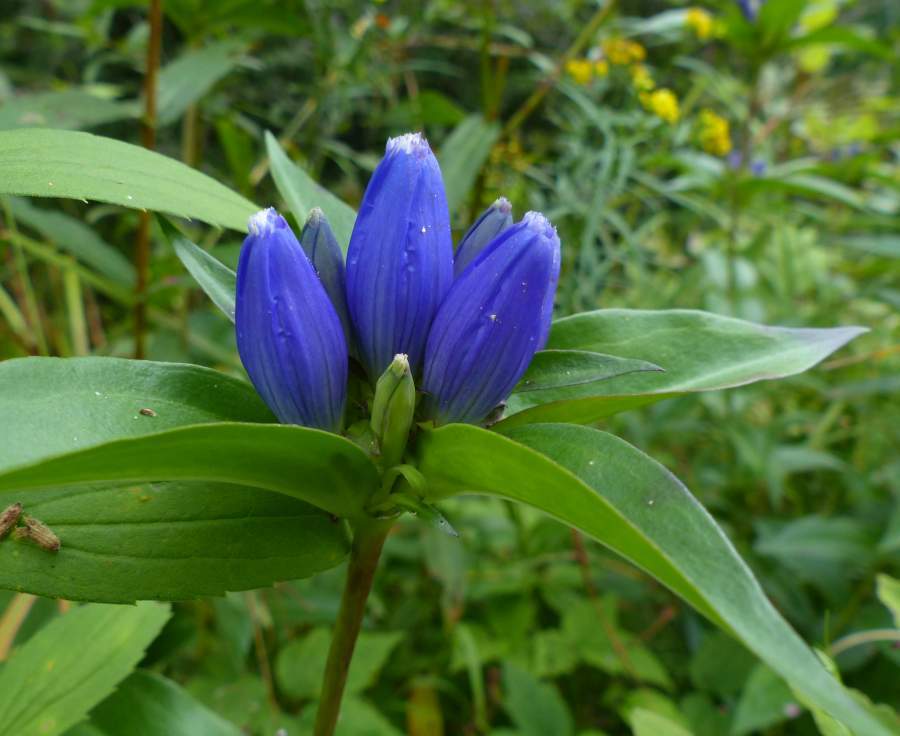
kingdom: Plantae
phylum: Tracheophyta
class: Magnoliopsida
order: Gentianales
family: Gentianaceae
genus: Gentiana
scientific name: Gentiana andrewsii
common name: Bottle gentian
